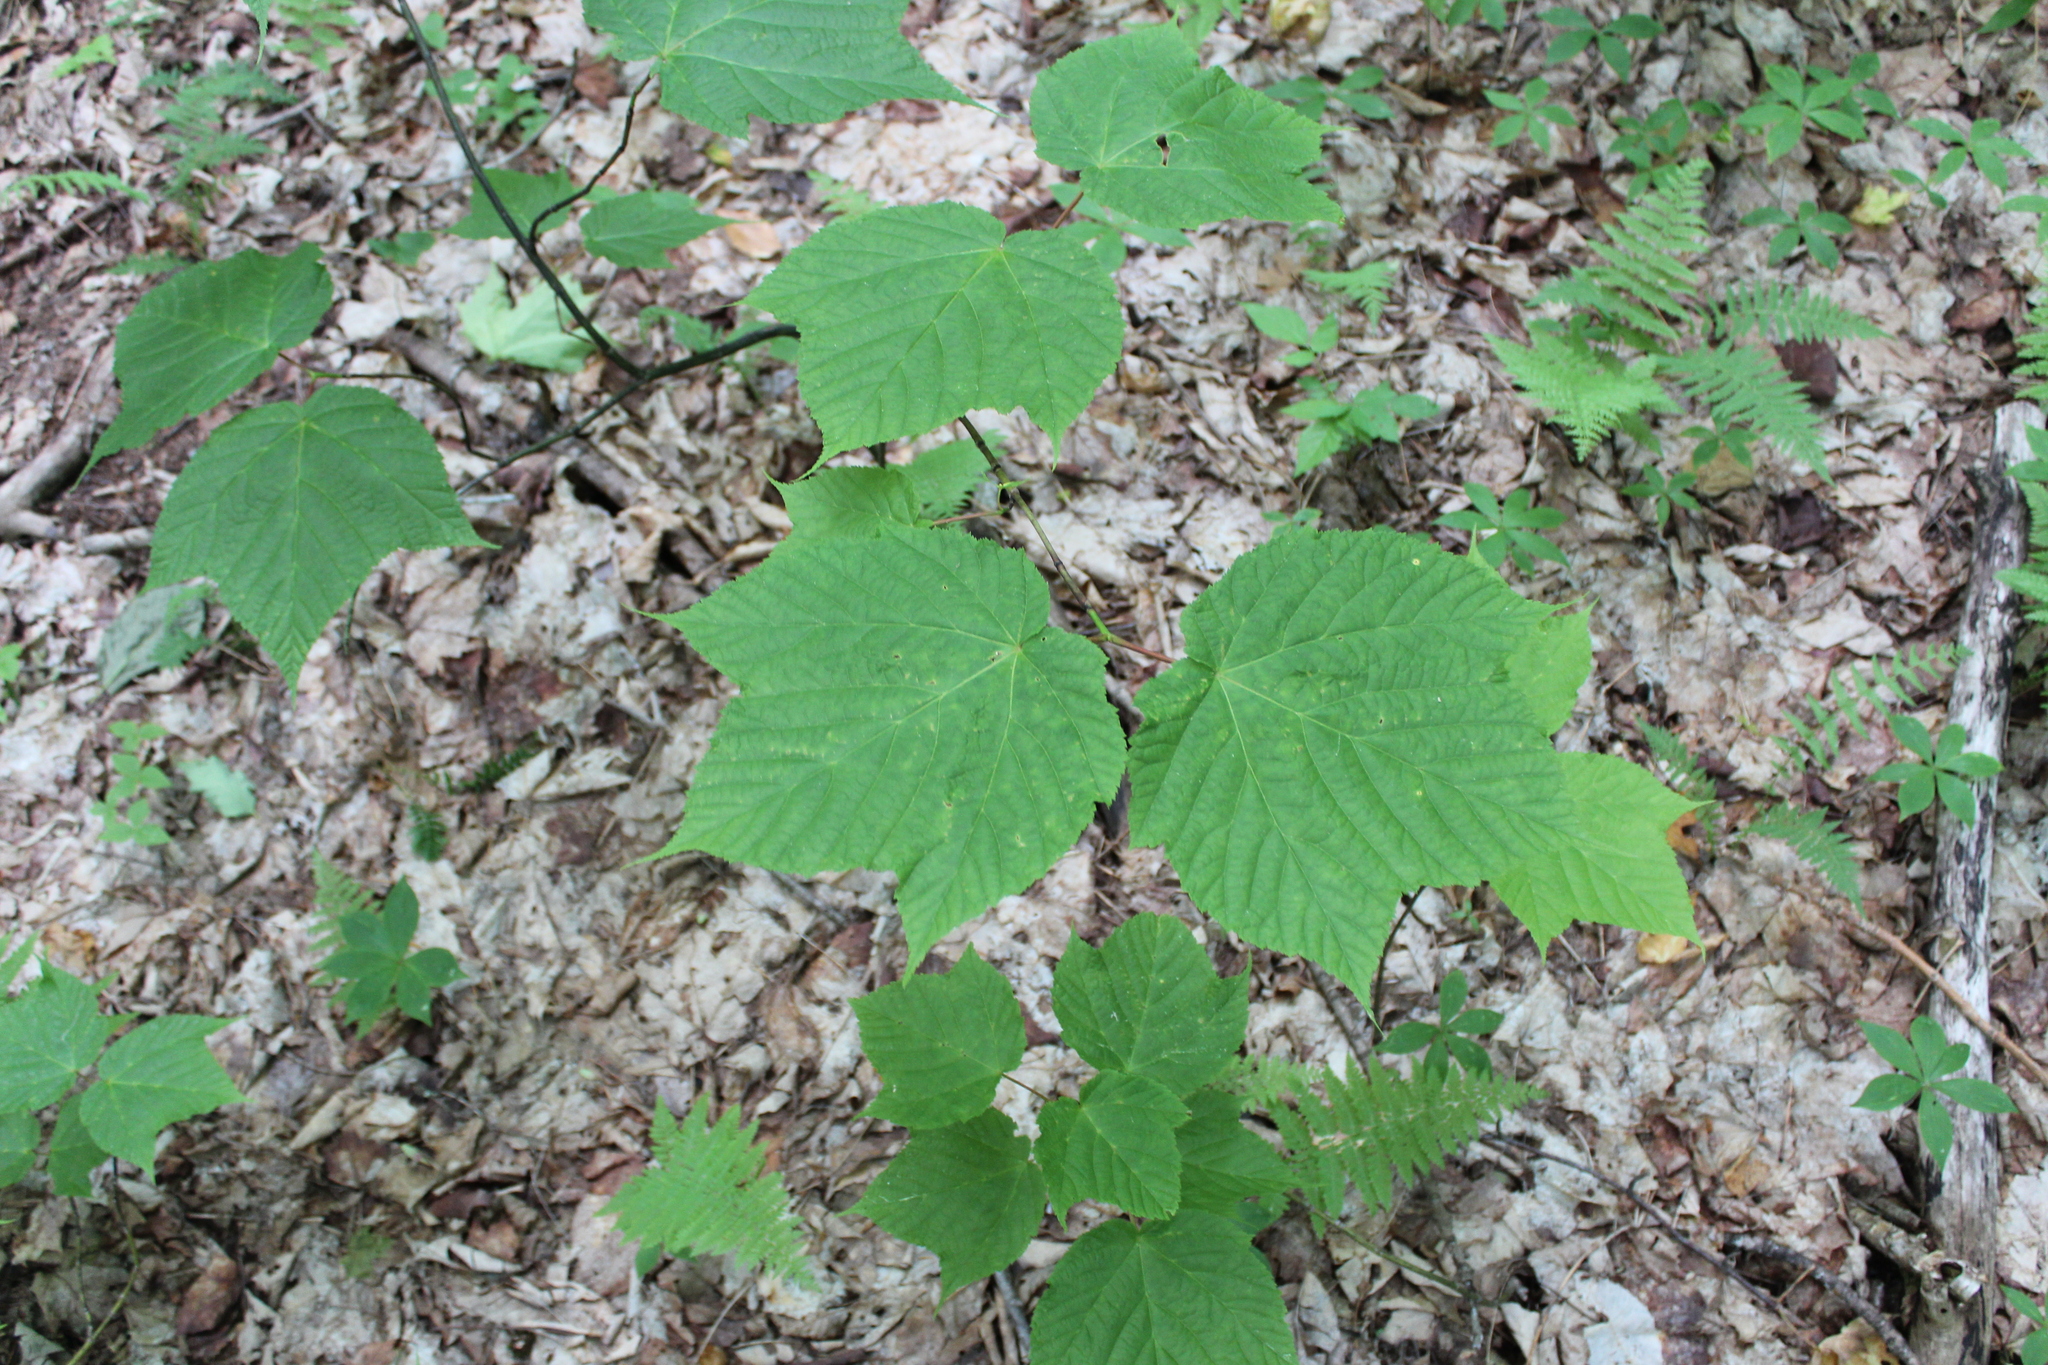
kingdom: Plantae
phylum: Tracheophyta
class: Magnoliopsida
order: Sapindales
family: Sapindaceae
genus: Acer
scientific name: Acer pensylvanicum
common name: Moosewood
